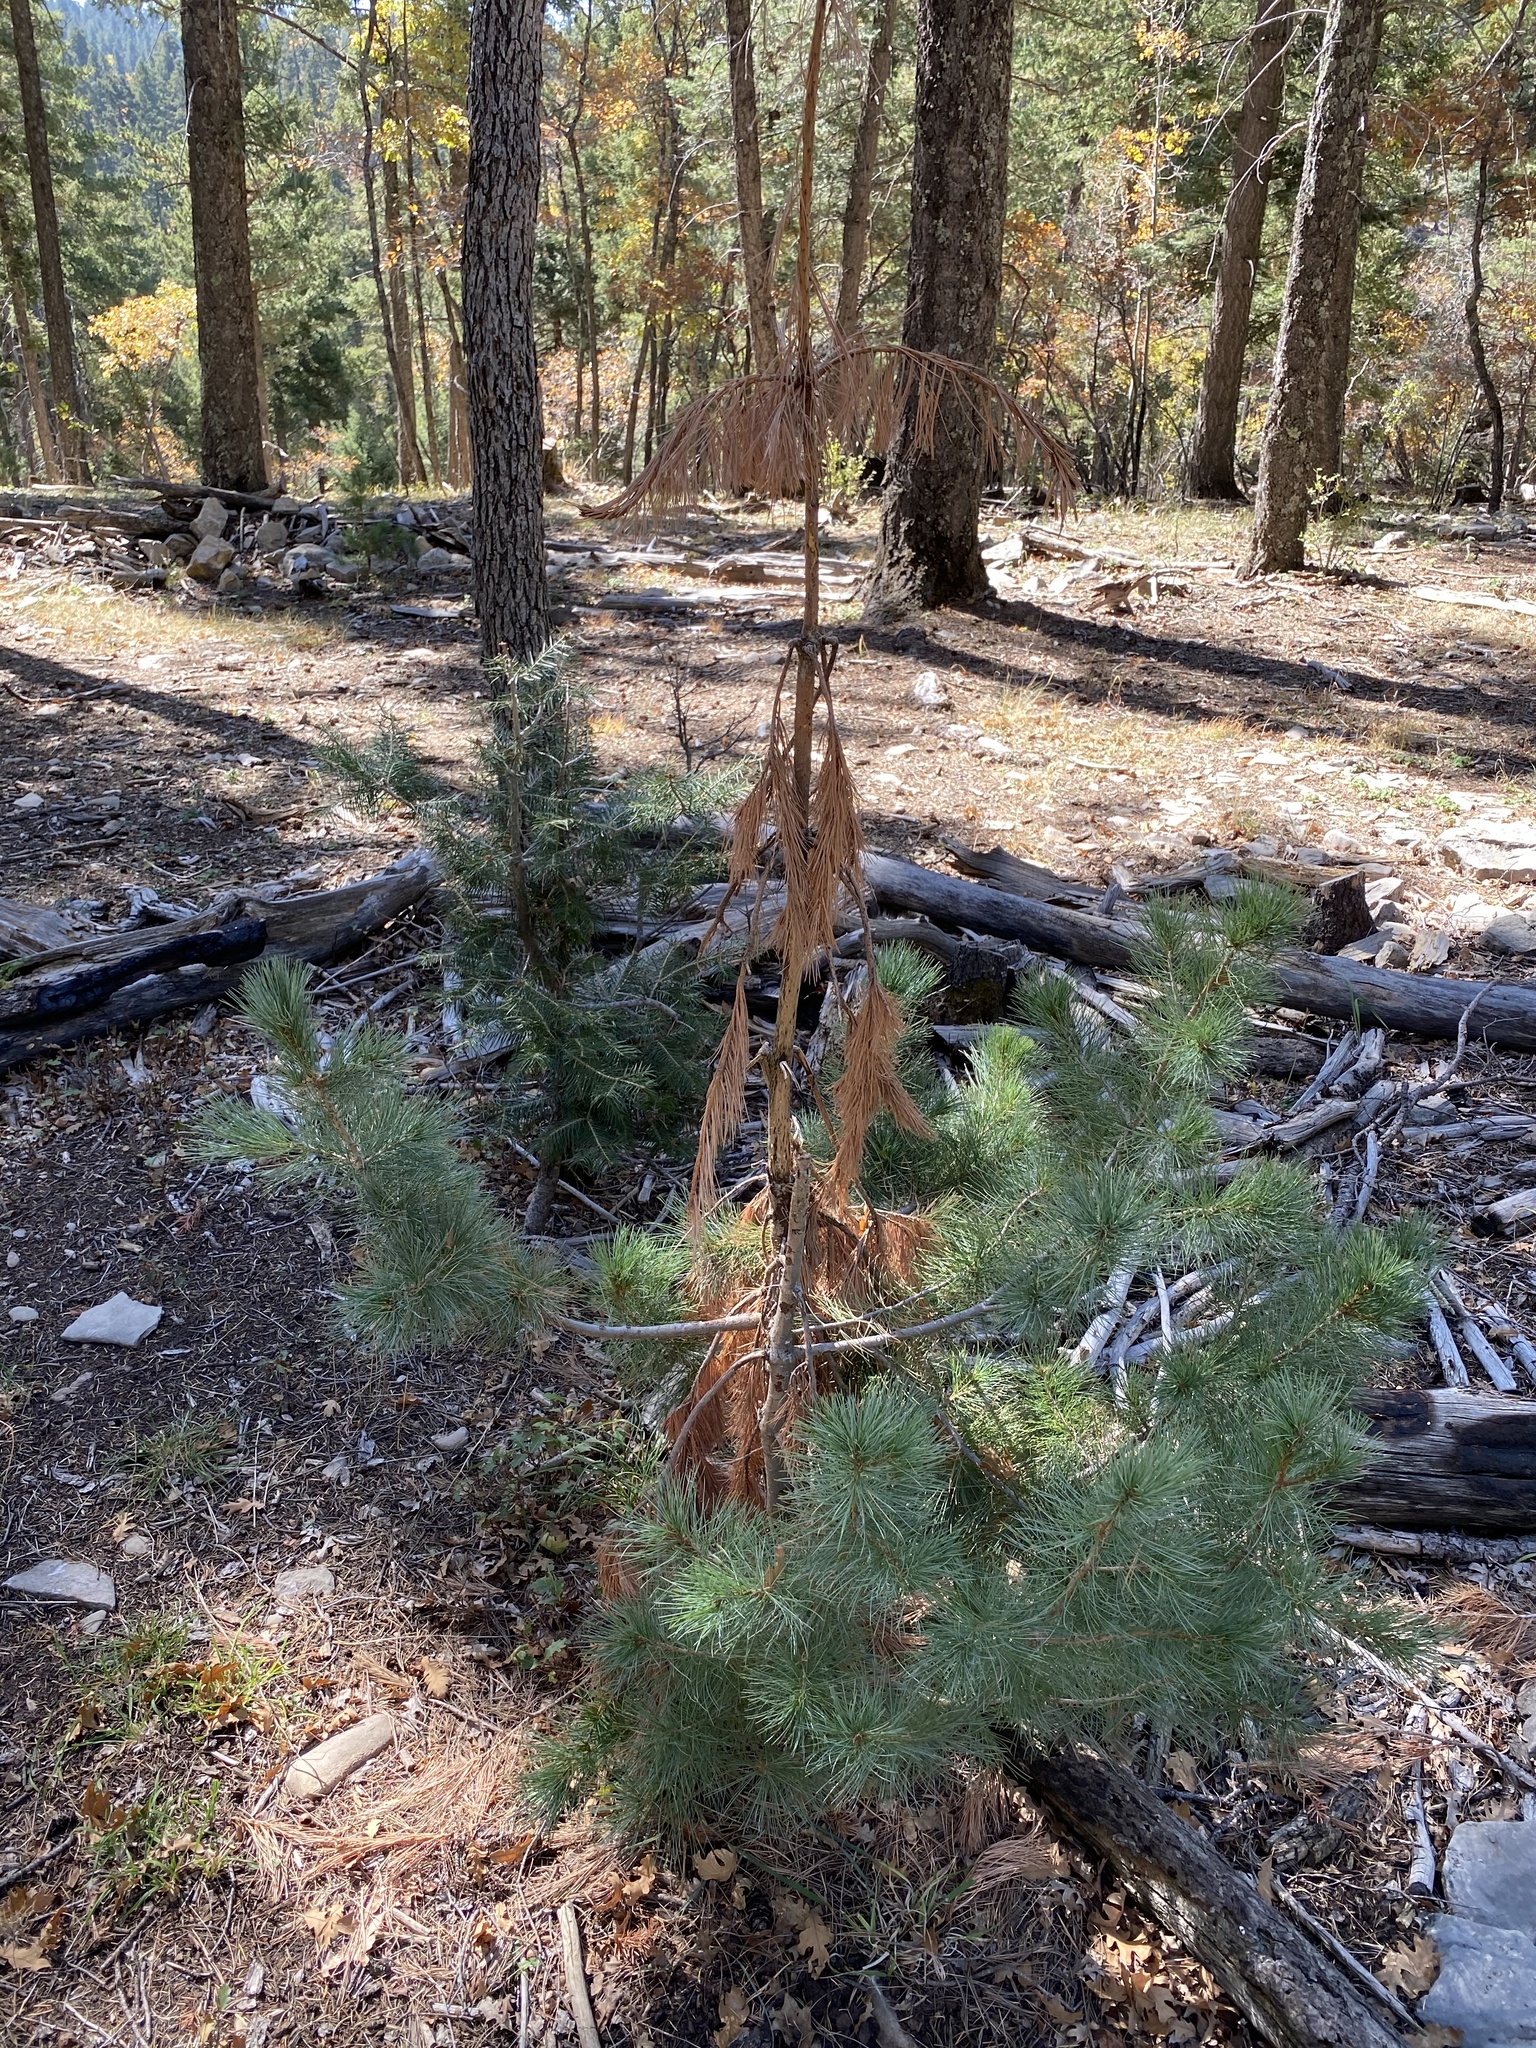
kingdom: Plantae
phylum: Tracheophyta
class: Pinopsida
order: Pinales
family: Pinaceae
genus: Pinus
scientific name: Pinus strobiformis
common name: Southwestern white pine
